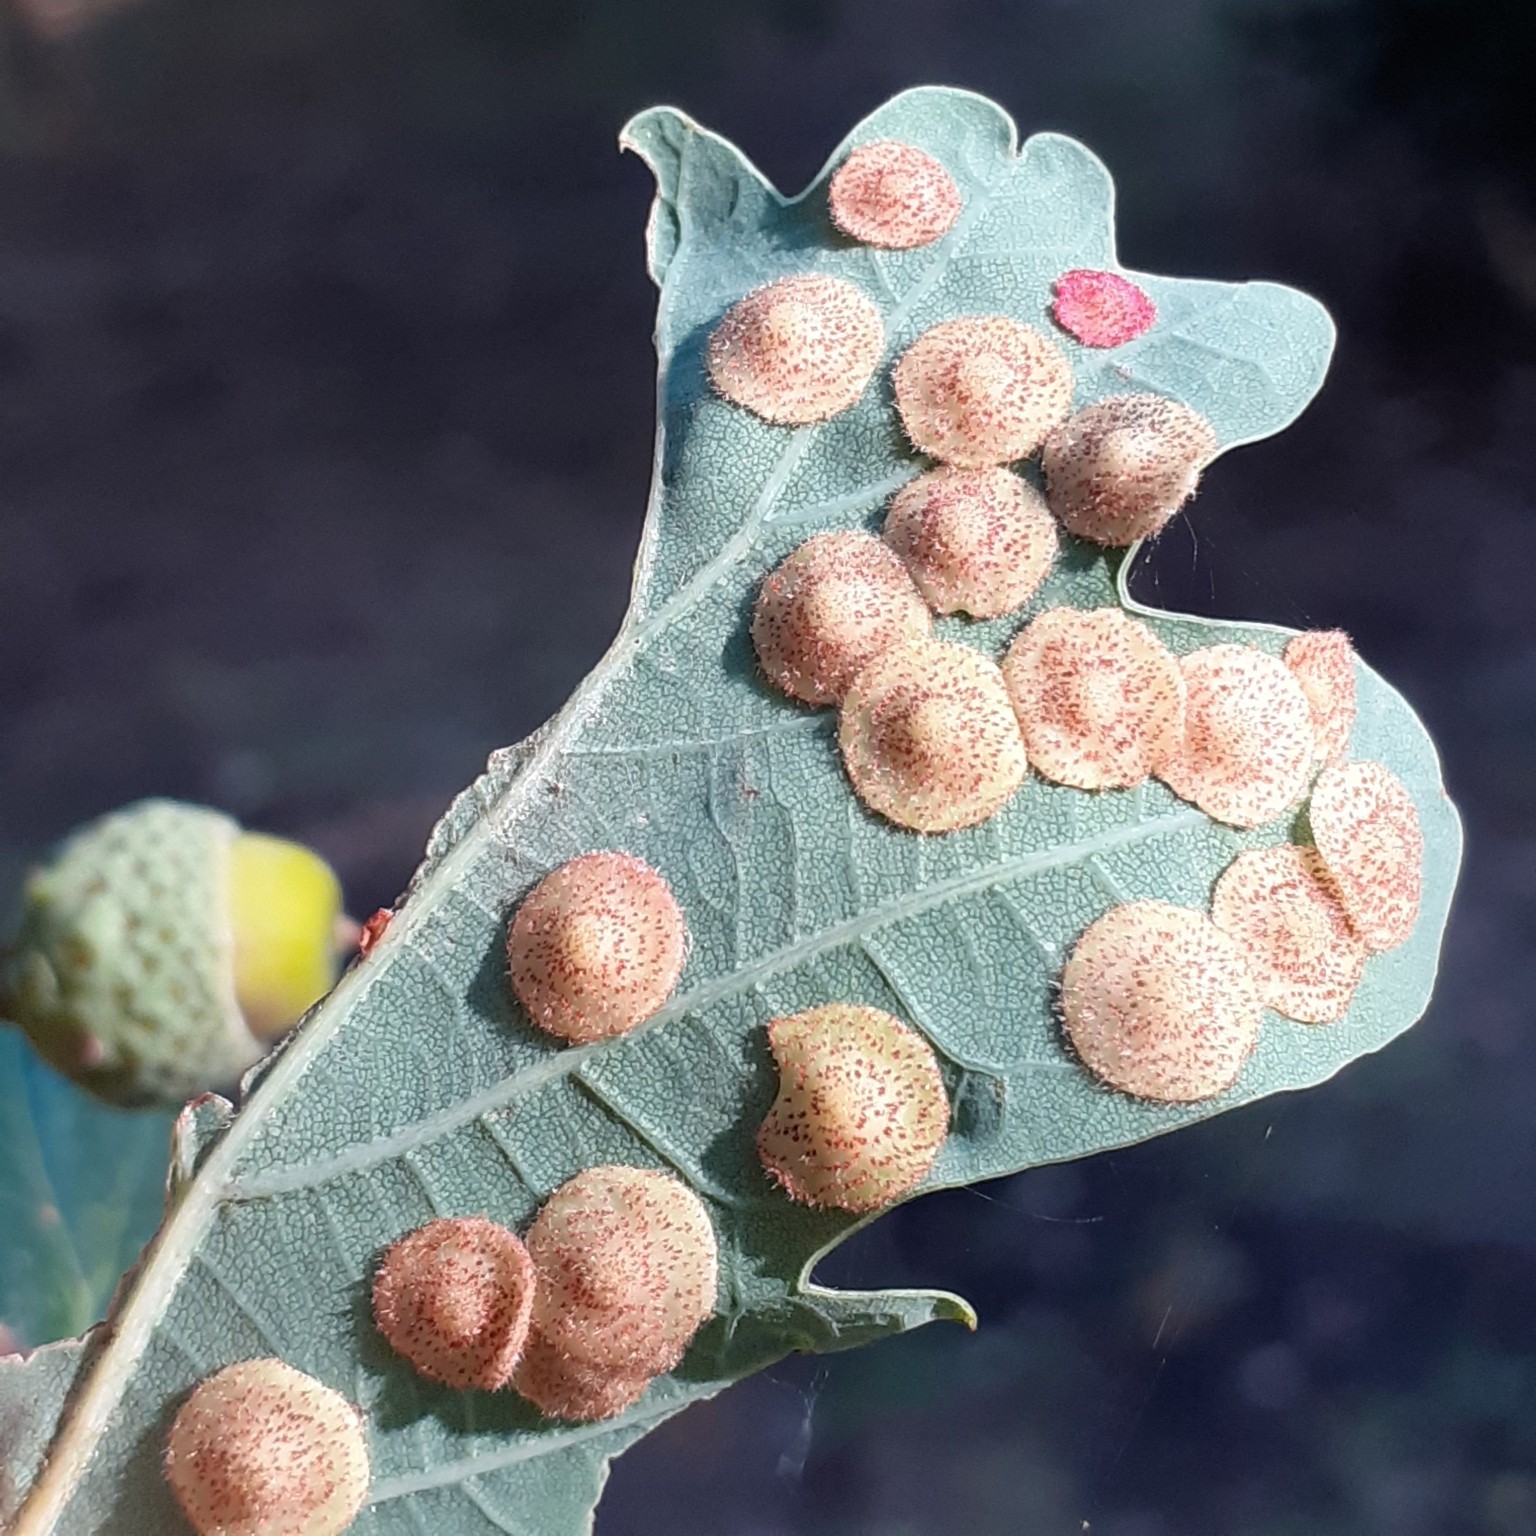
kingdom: Animalia
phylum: Arthropoda
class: Insecta
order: Hymenoptera
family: Cynipidae
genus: Neuroterus
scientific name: Neuroterus quercusbaccarum
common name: Common spangle gall
